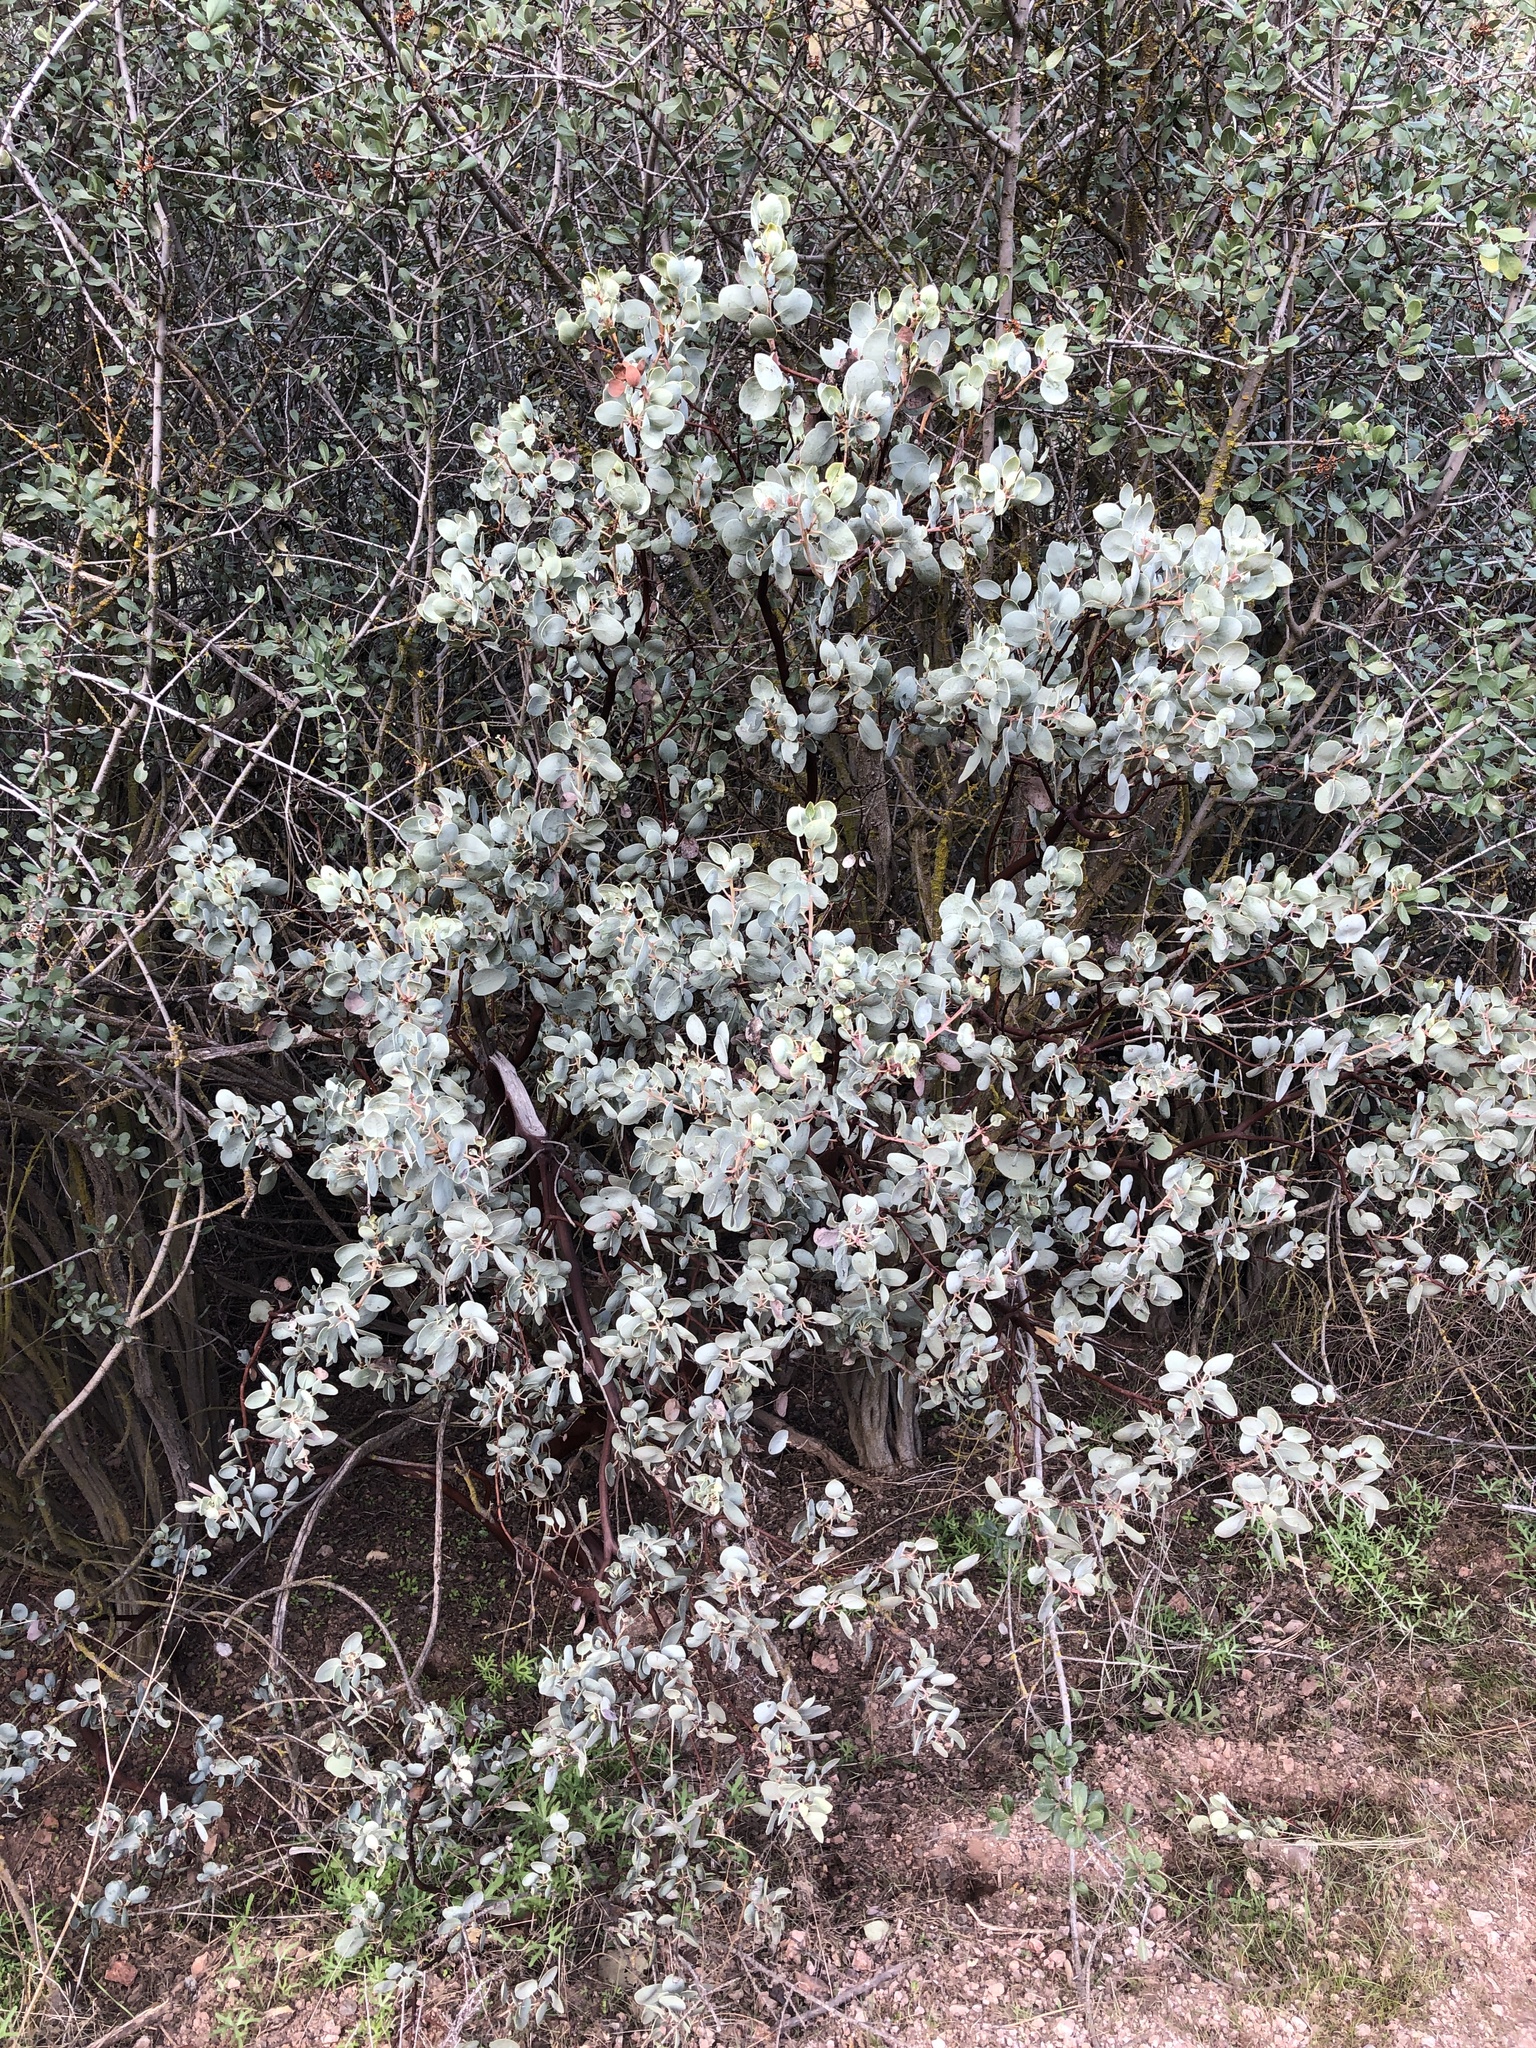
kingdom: Plantae
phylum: Tracheophyta
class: Magnoliopsida
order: Ericales
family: Ericaceae
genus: Arctostaphylos
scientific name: Arctostaphylos glauca
